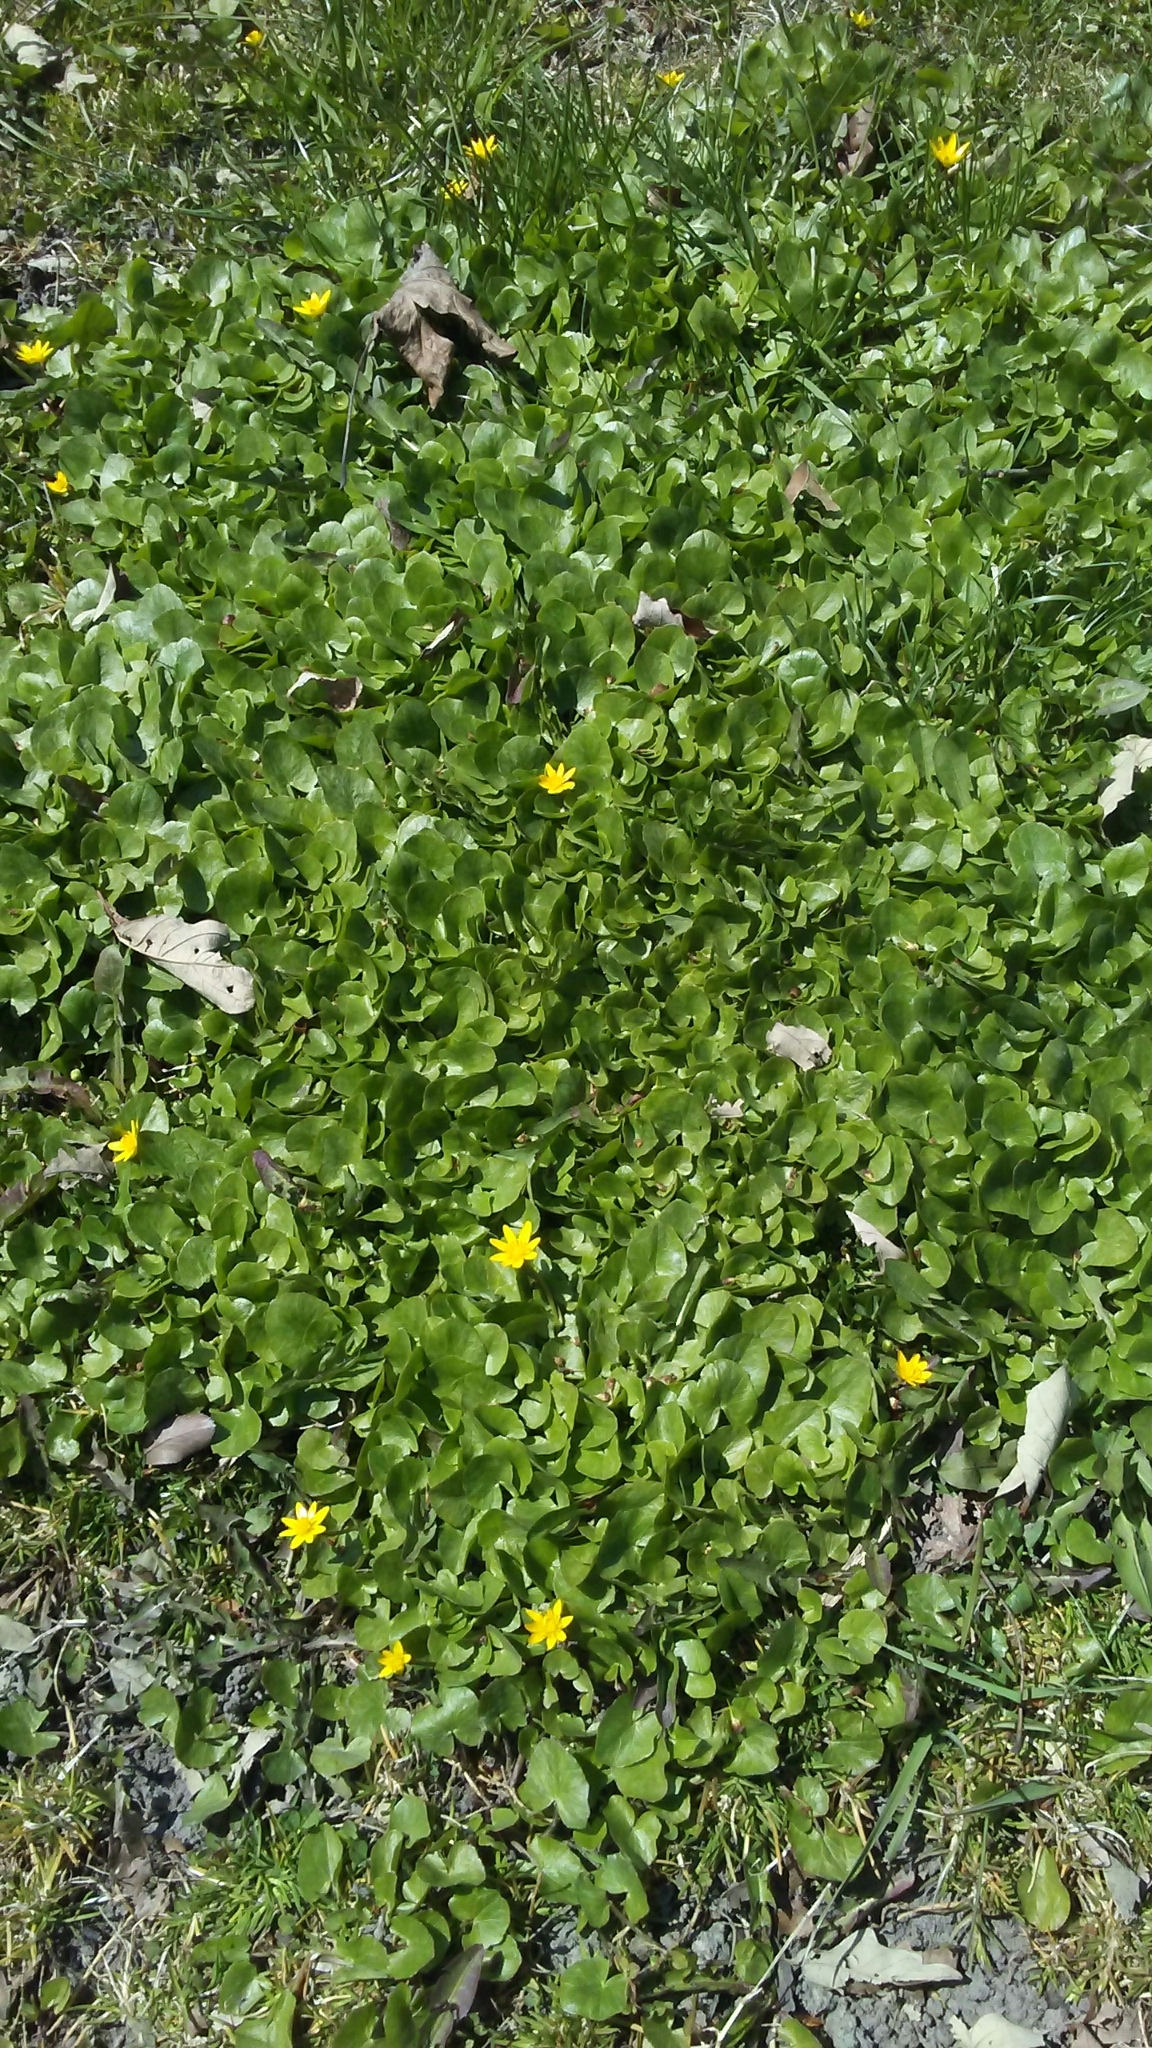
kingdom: Plantae
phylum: Tracheophyta
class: Magnoliopsida
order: Ranunculales
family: Ranunculaceae
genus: Ficaria
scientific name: Ficaria verna
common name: Lesser celandine
